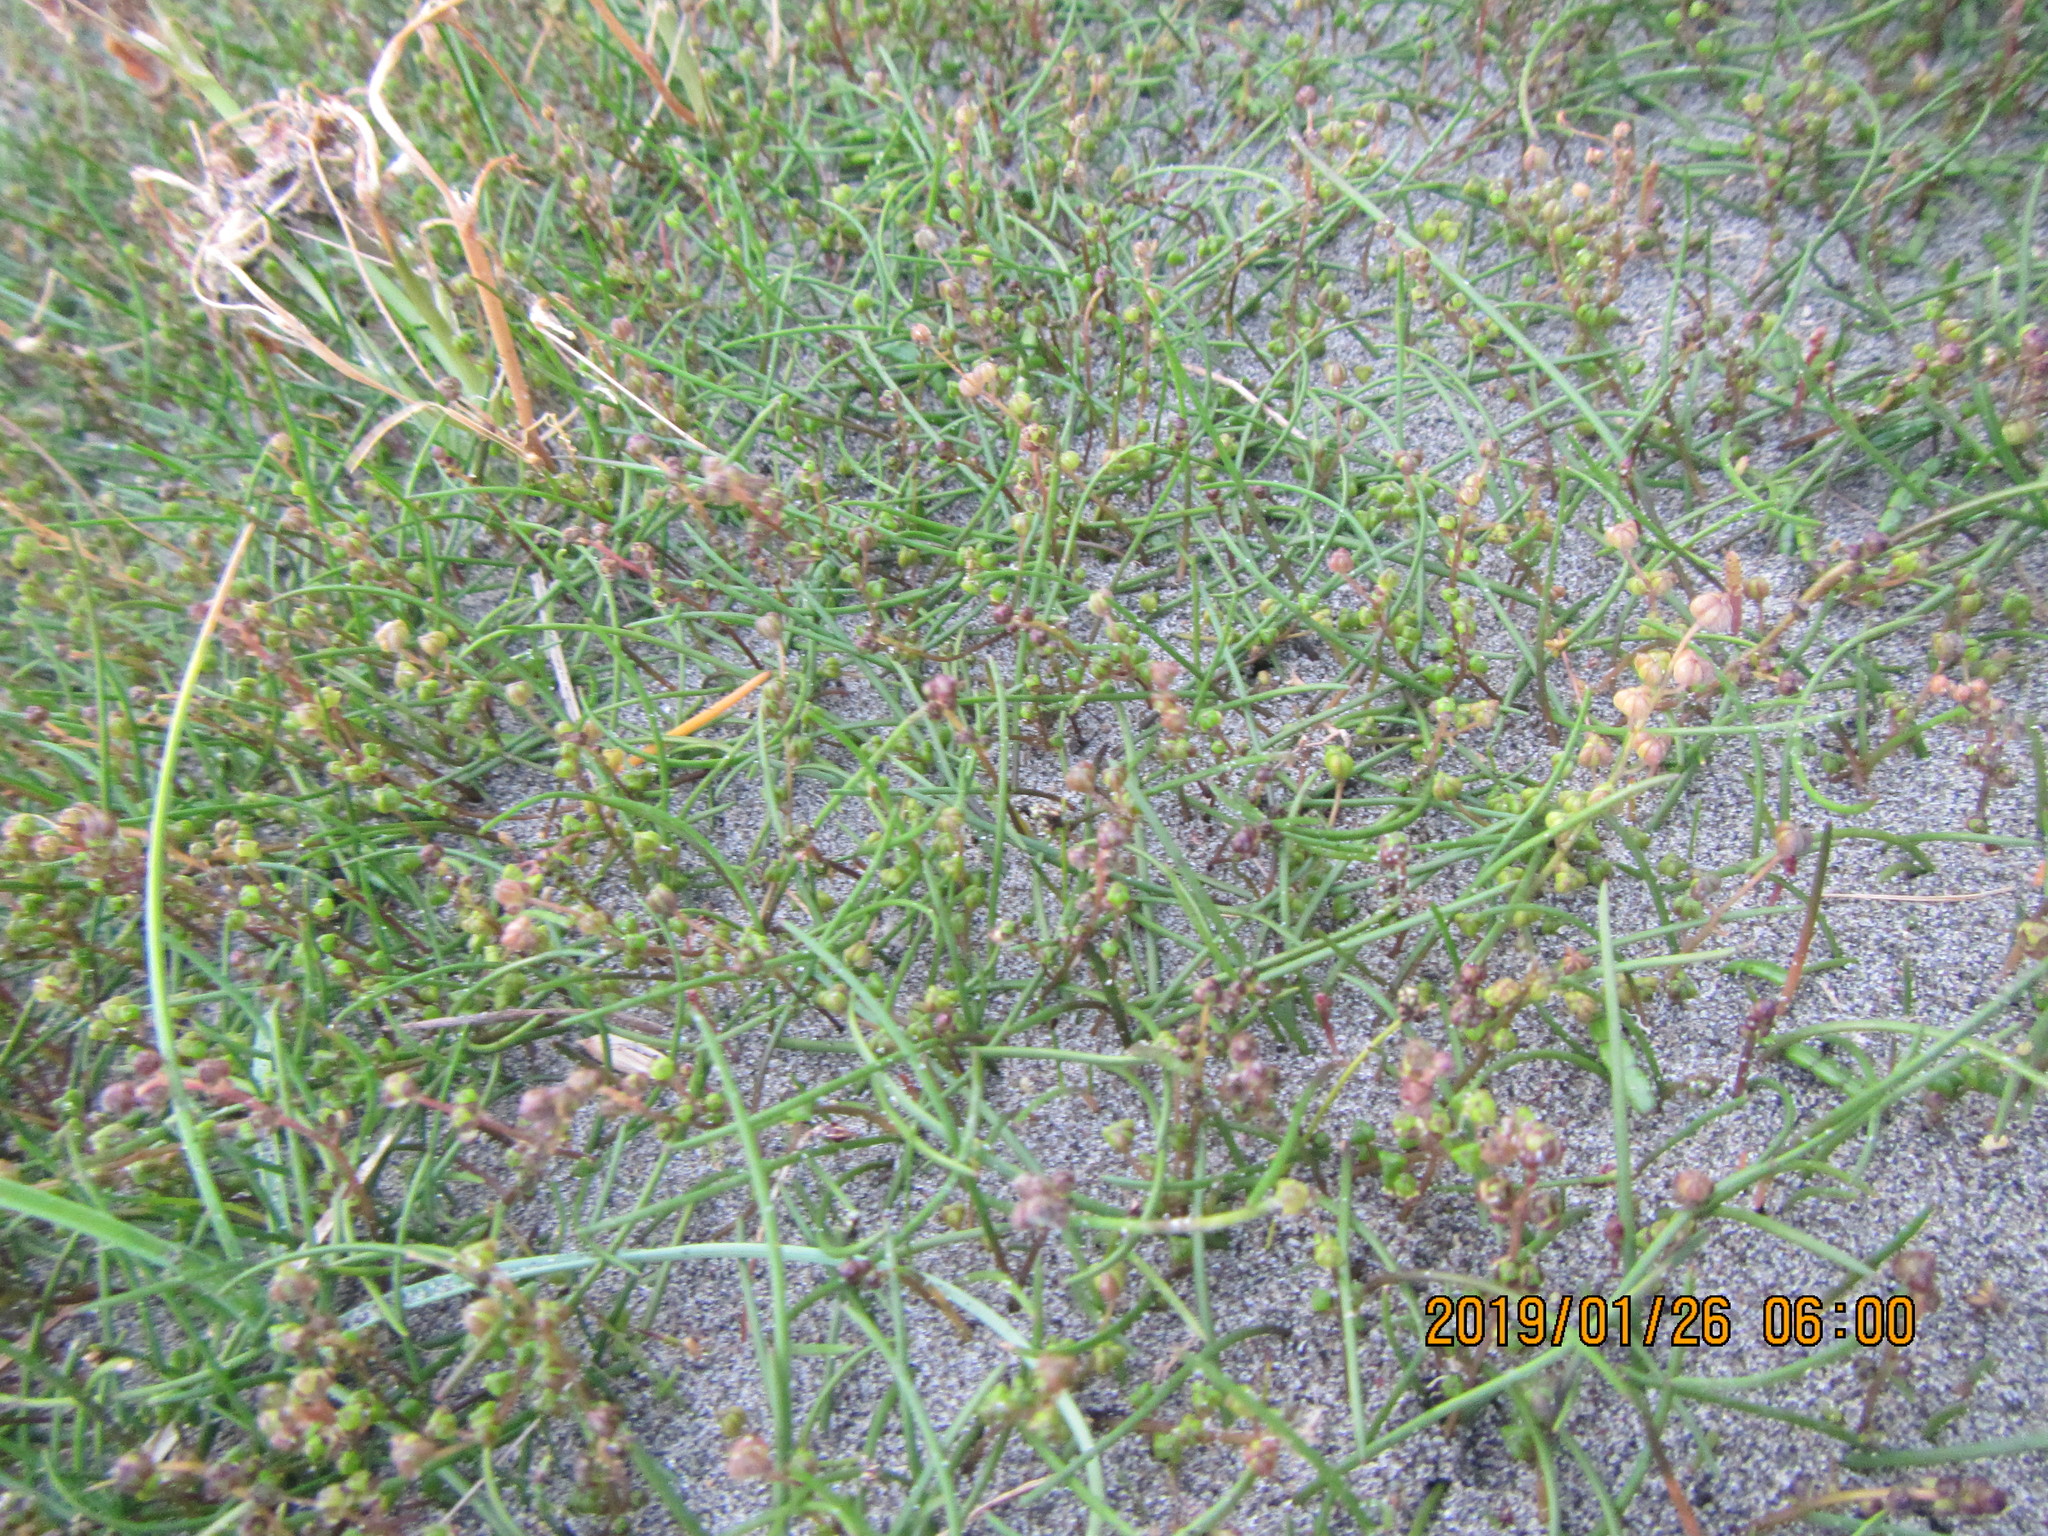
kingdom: Plantae
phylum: Tracheophyta
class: Liliopsida
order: Alismatales
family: Juncaginaceae
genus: Triglochin
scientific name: Triglochin striata
